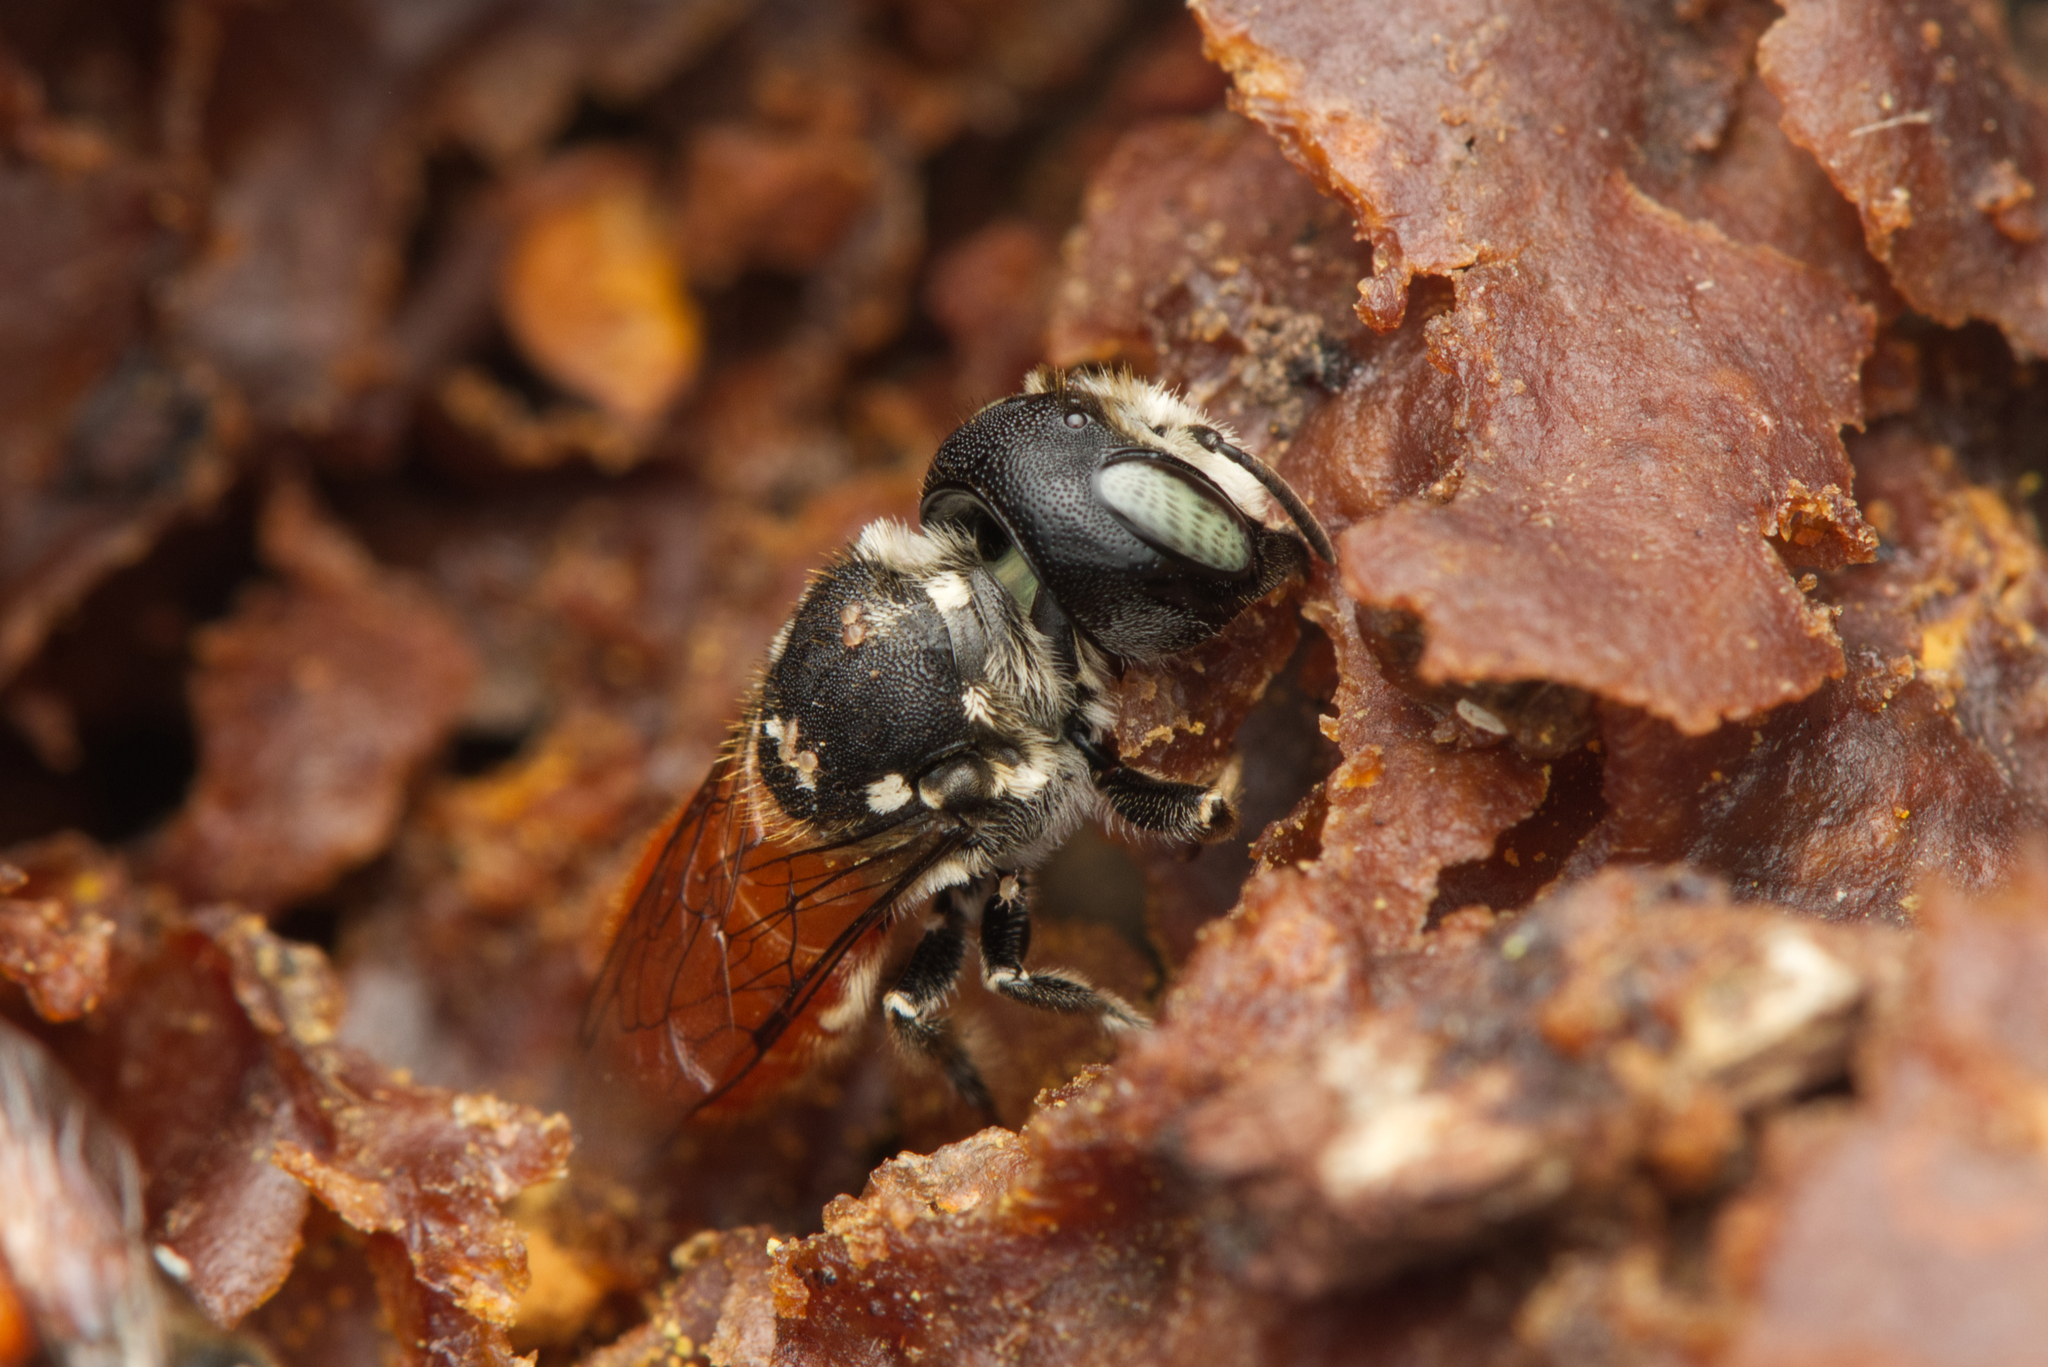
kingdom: Animalia
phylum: Arthropoda
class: Insecta
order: Hymenoptera
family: Megachilidae
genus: Megachile
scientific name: Megachile deanii
